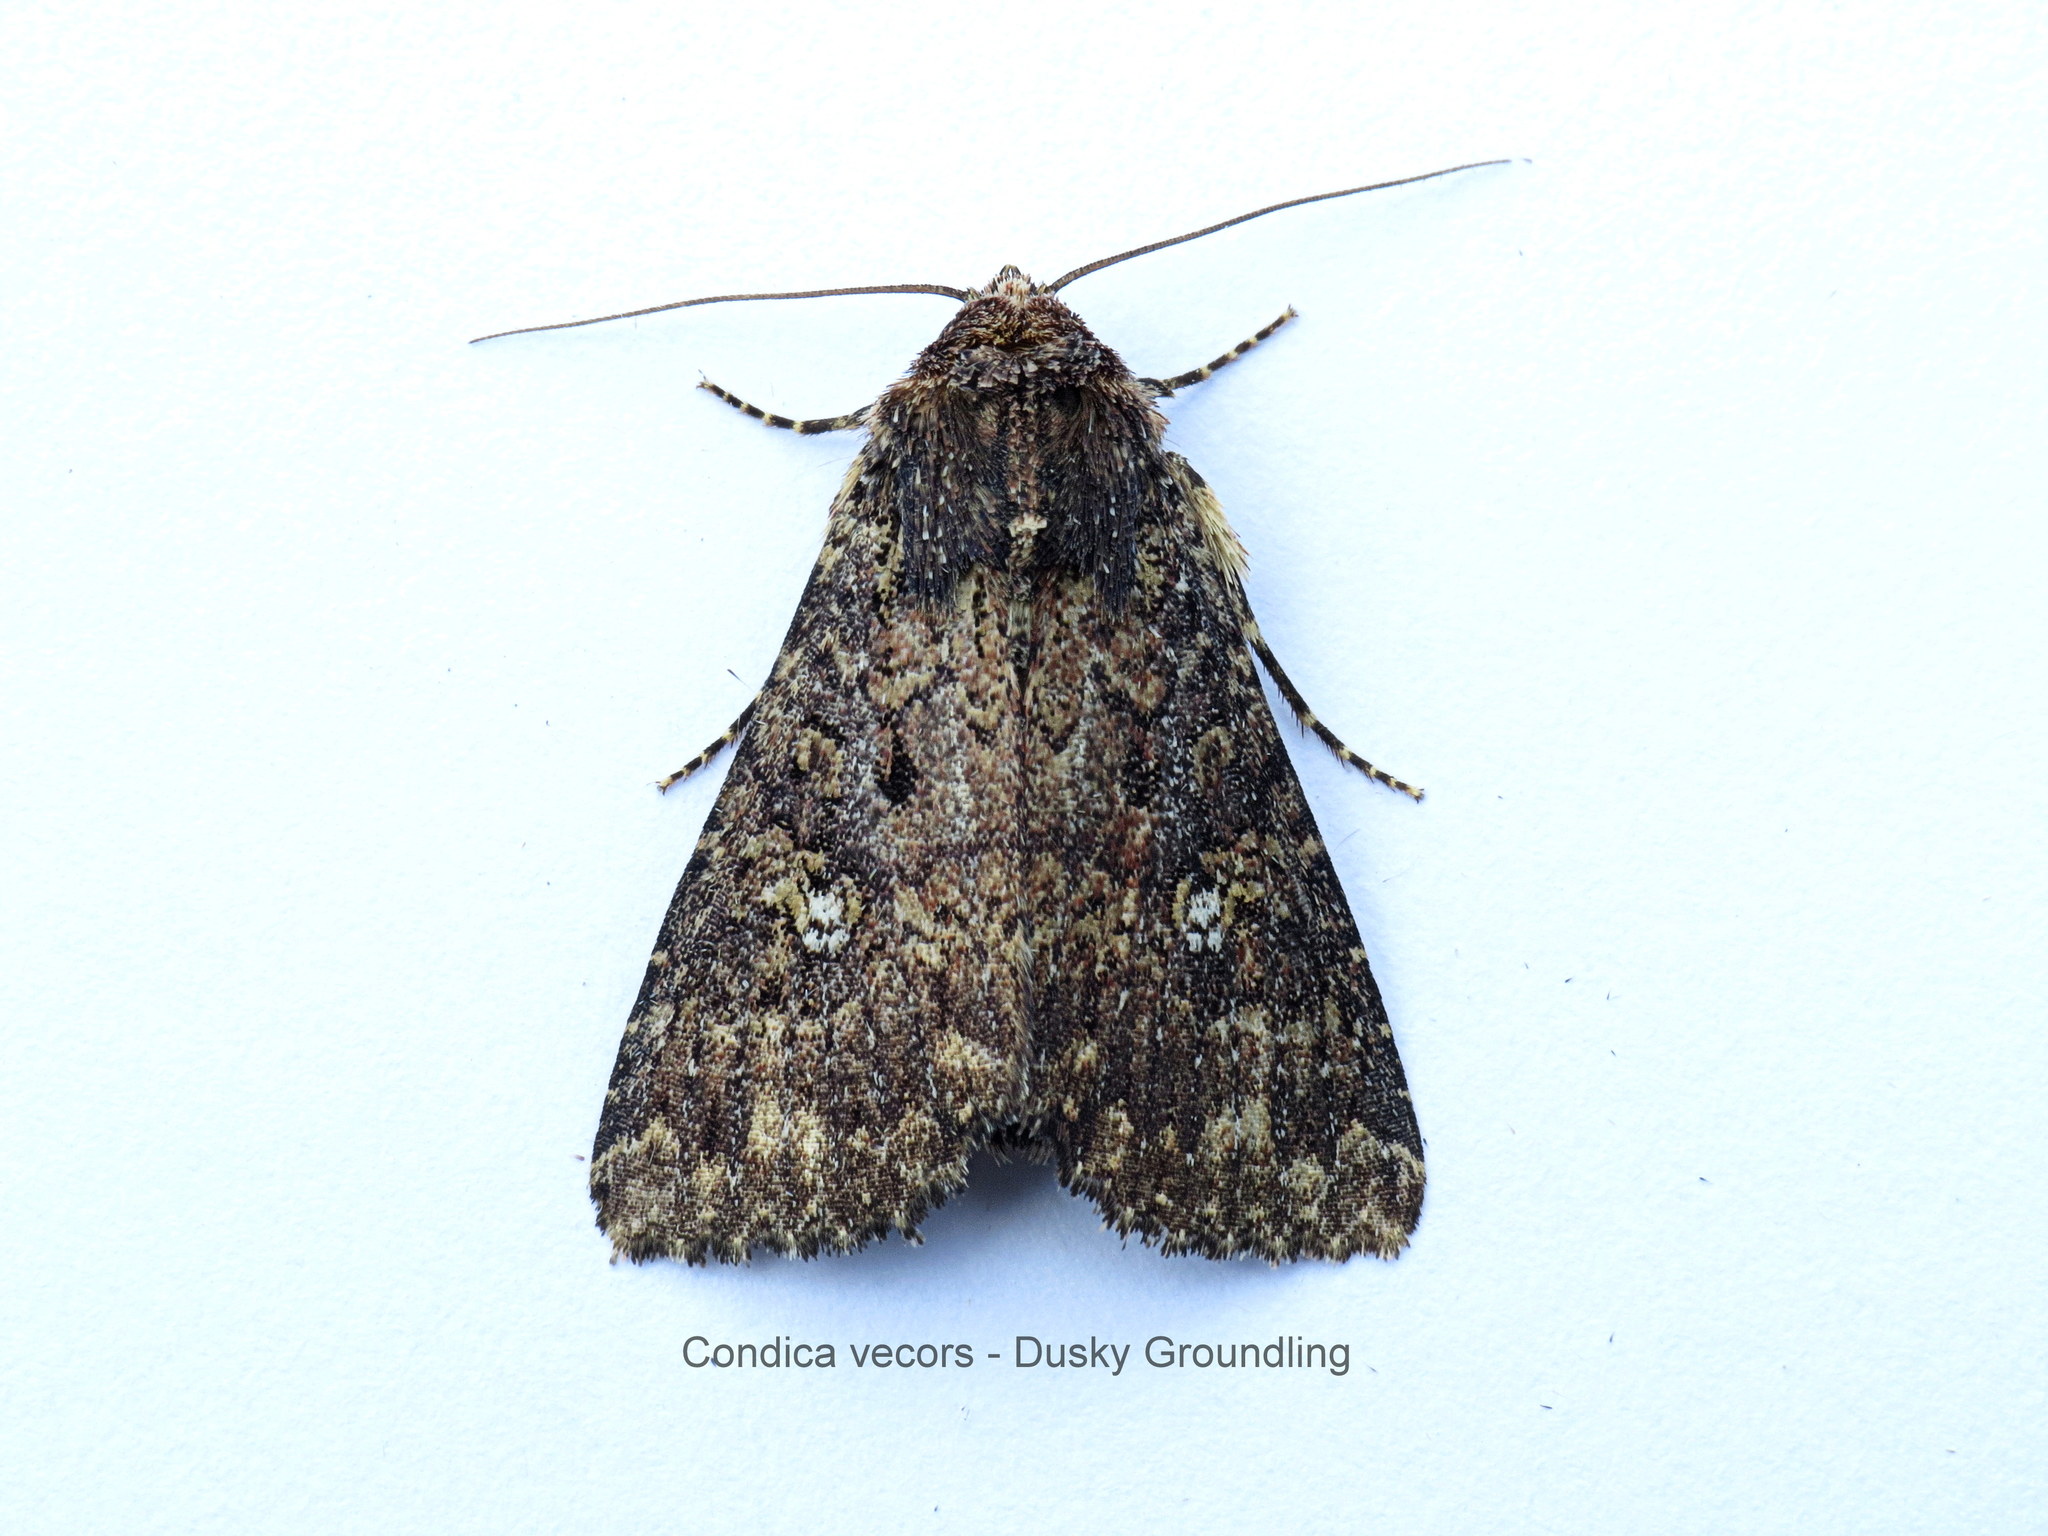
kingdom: Animalia
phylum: Arthropoda
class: Insecta
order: Lepidoptera
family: Noctuidae
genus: Condica
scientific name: Condica vecors
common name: Dusky groundling
